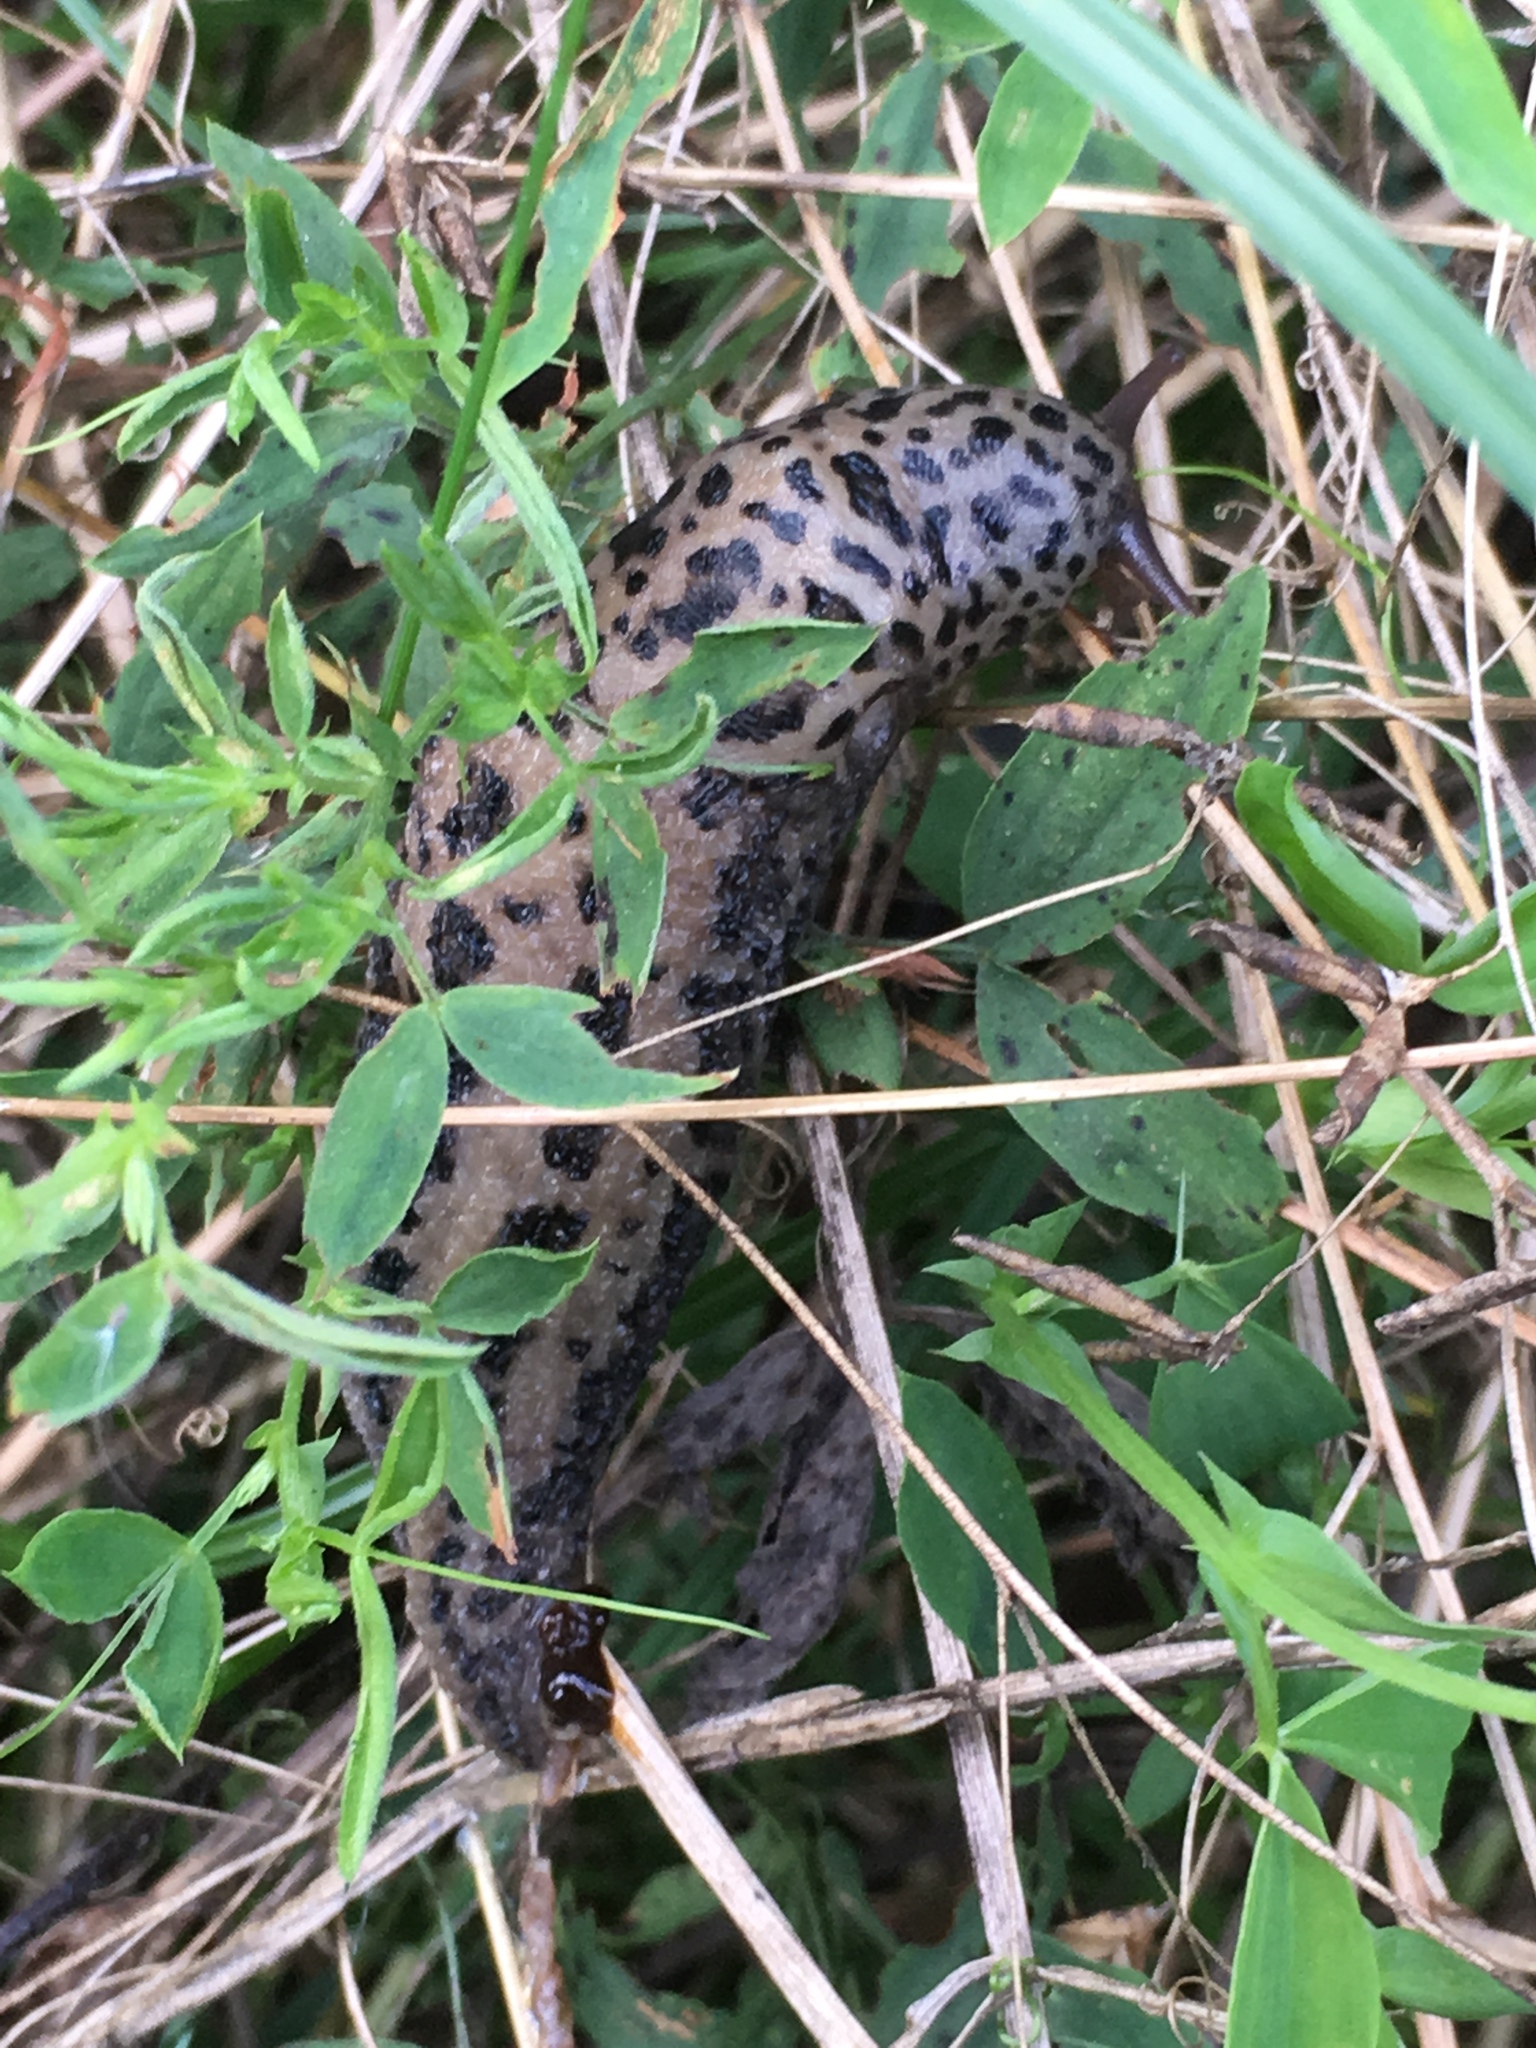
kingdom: Animalia
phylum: Mollusca
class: Gastropoda
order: Stylommatophora
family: Limacidae
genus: Limax
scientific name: Limax maximus
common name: Great grey slug
